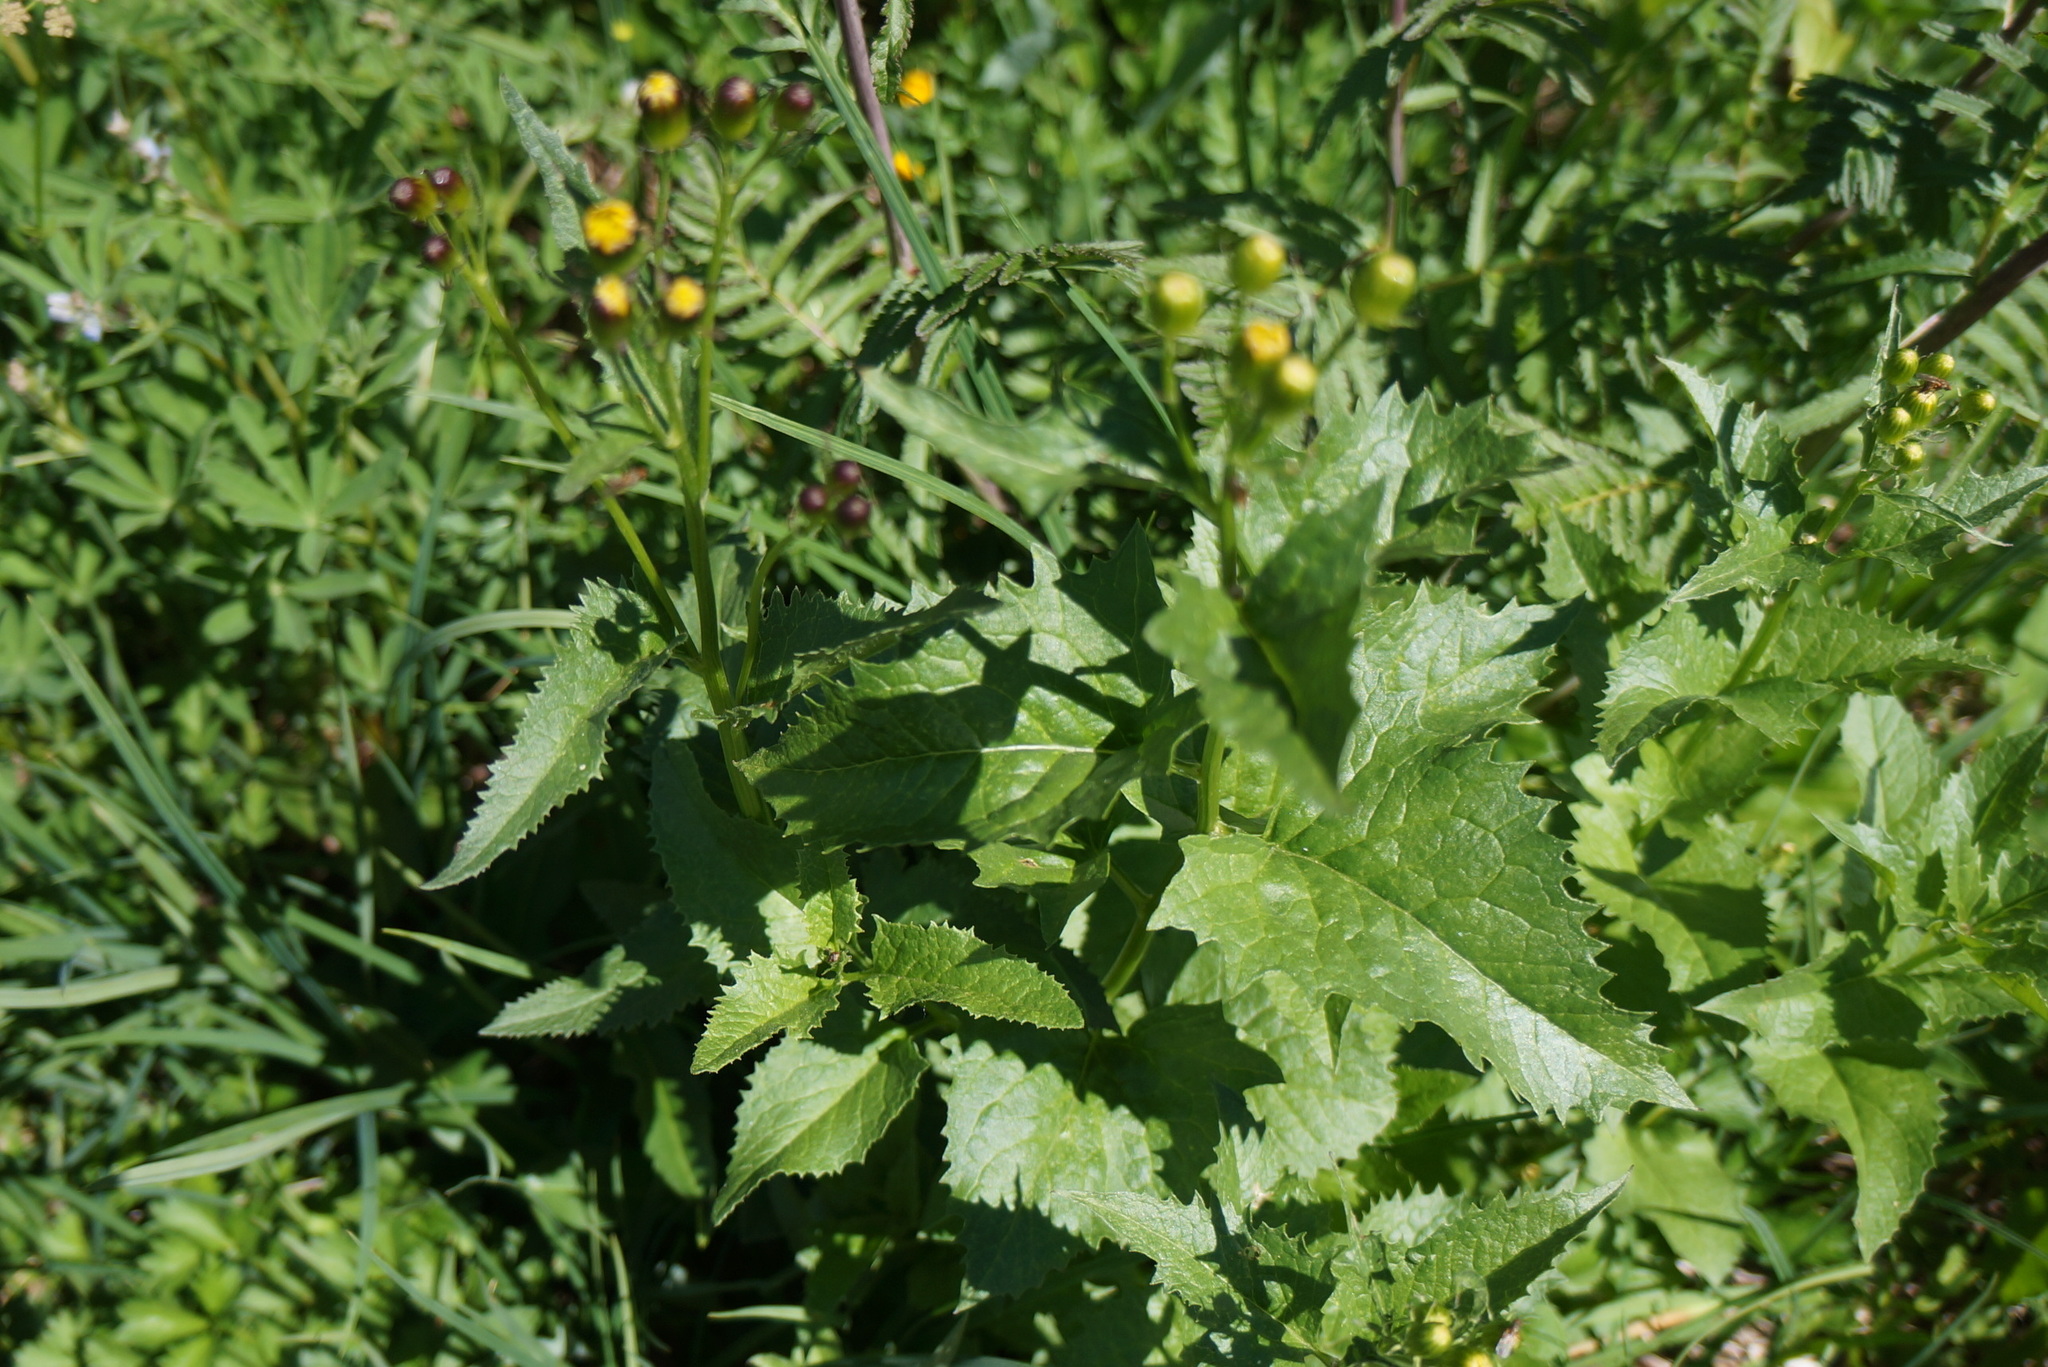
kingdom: Plantae
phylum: Tracheophyta
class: Magnoliopsida
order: Asterales
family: Asteraceae
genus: Senecio
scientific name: Senecio triangularis
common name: Arrowleaf butterweed
